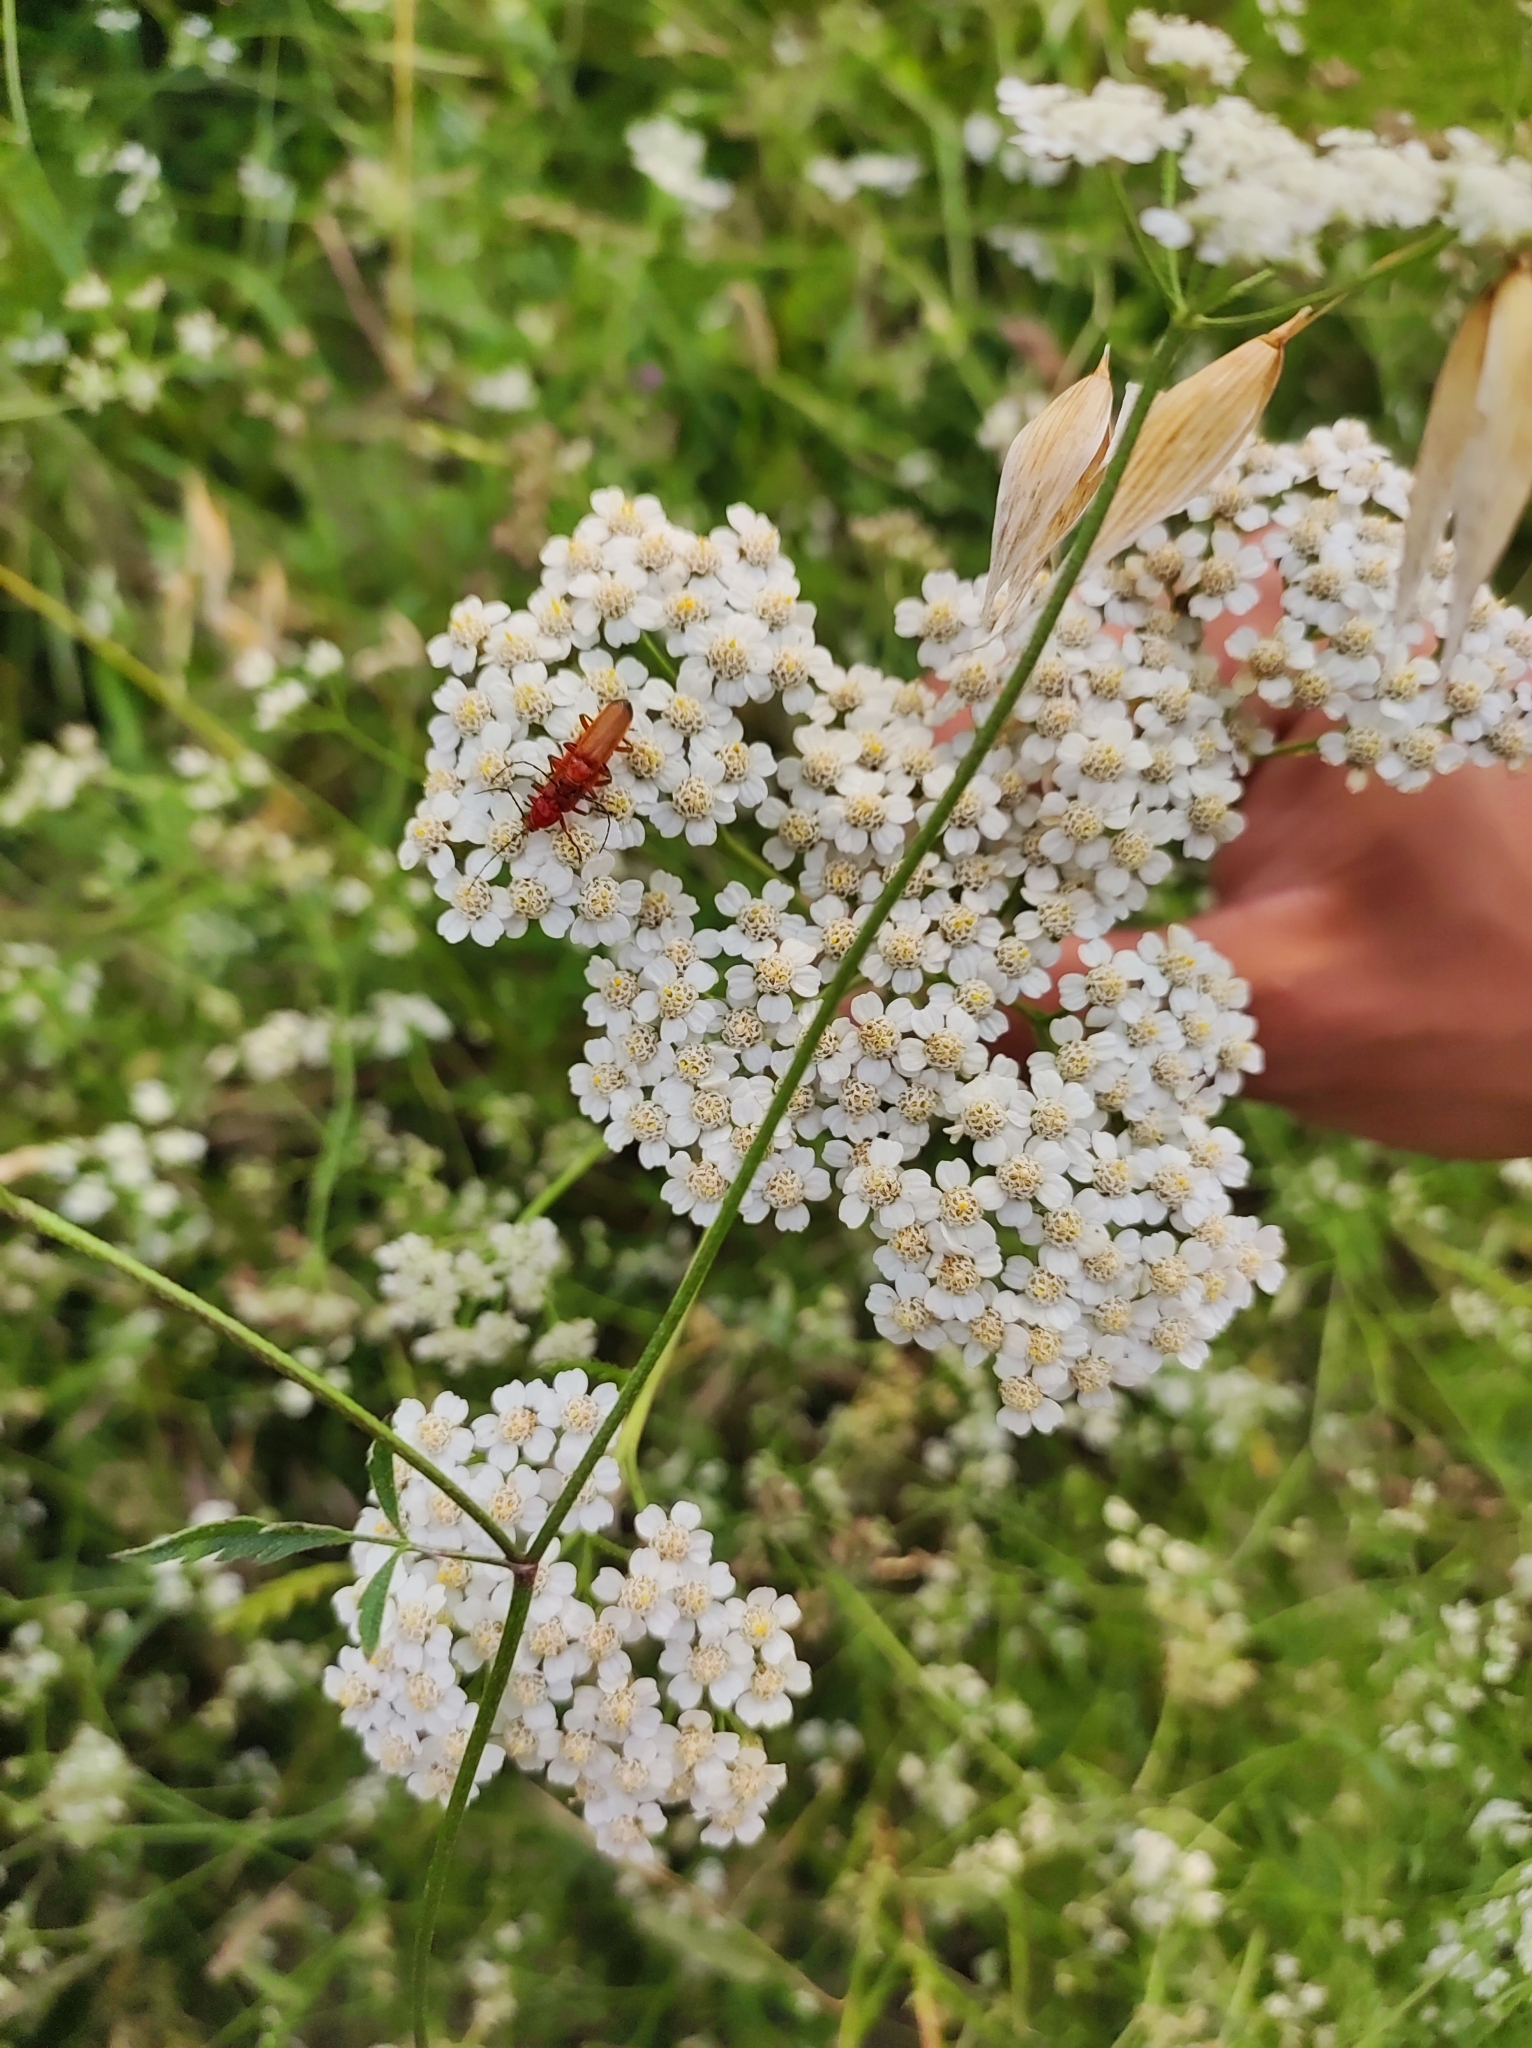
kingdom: Animalia
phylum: Arthropoda
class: Insecta
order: Coleoptera
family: Cantharidae
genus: Rhagonycha
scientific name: Rhagonycha fulva
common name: Common red soldier beetle
